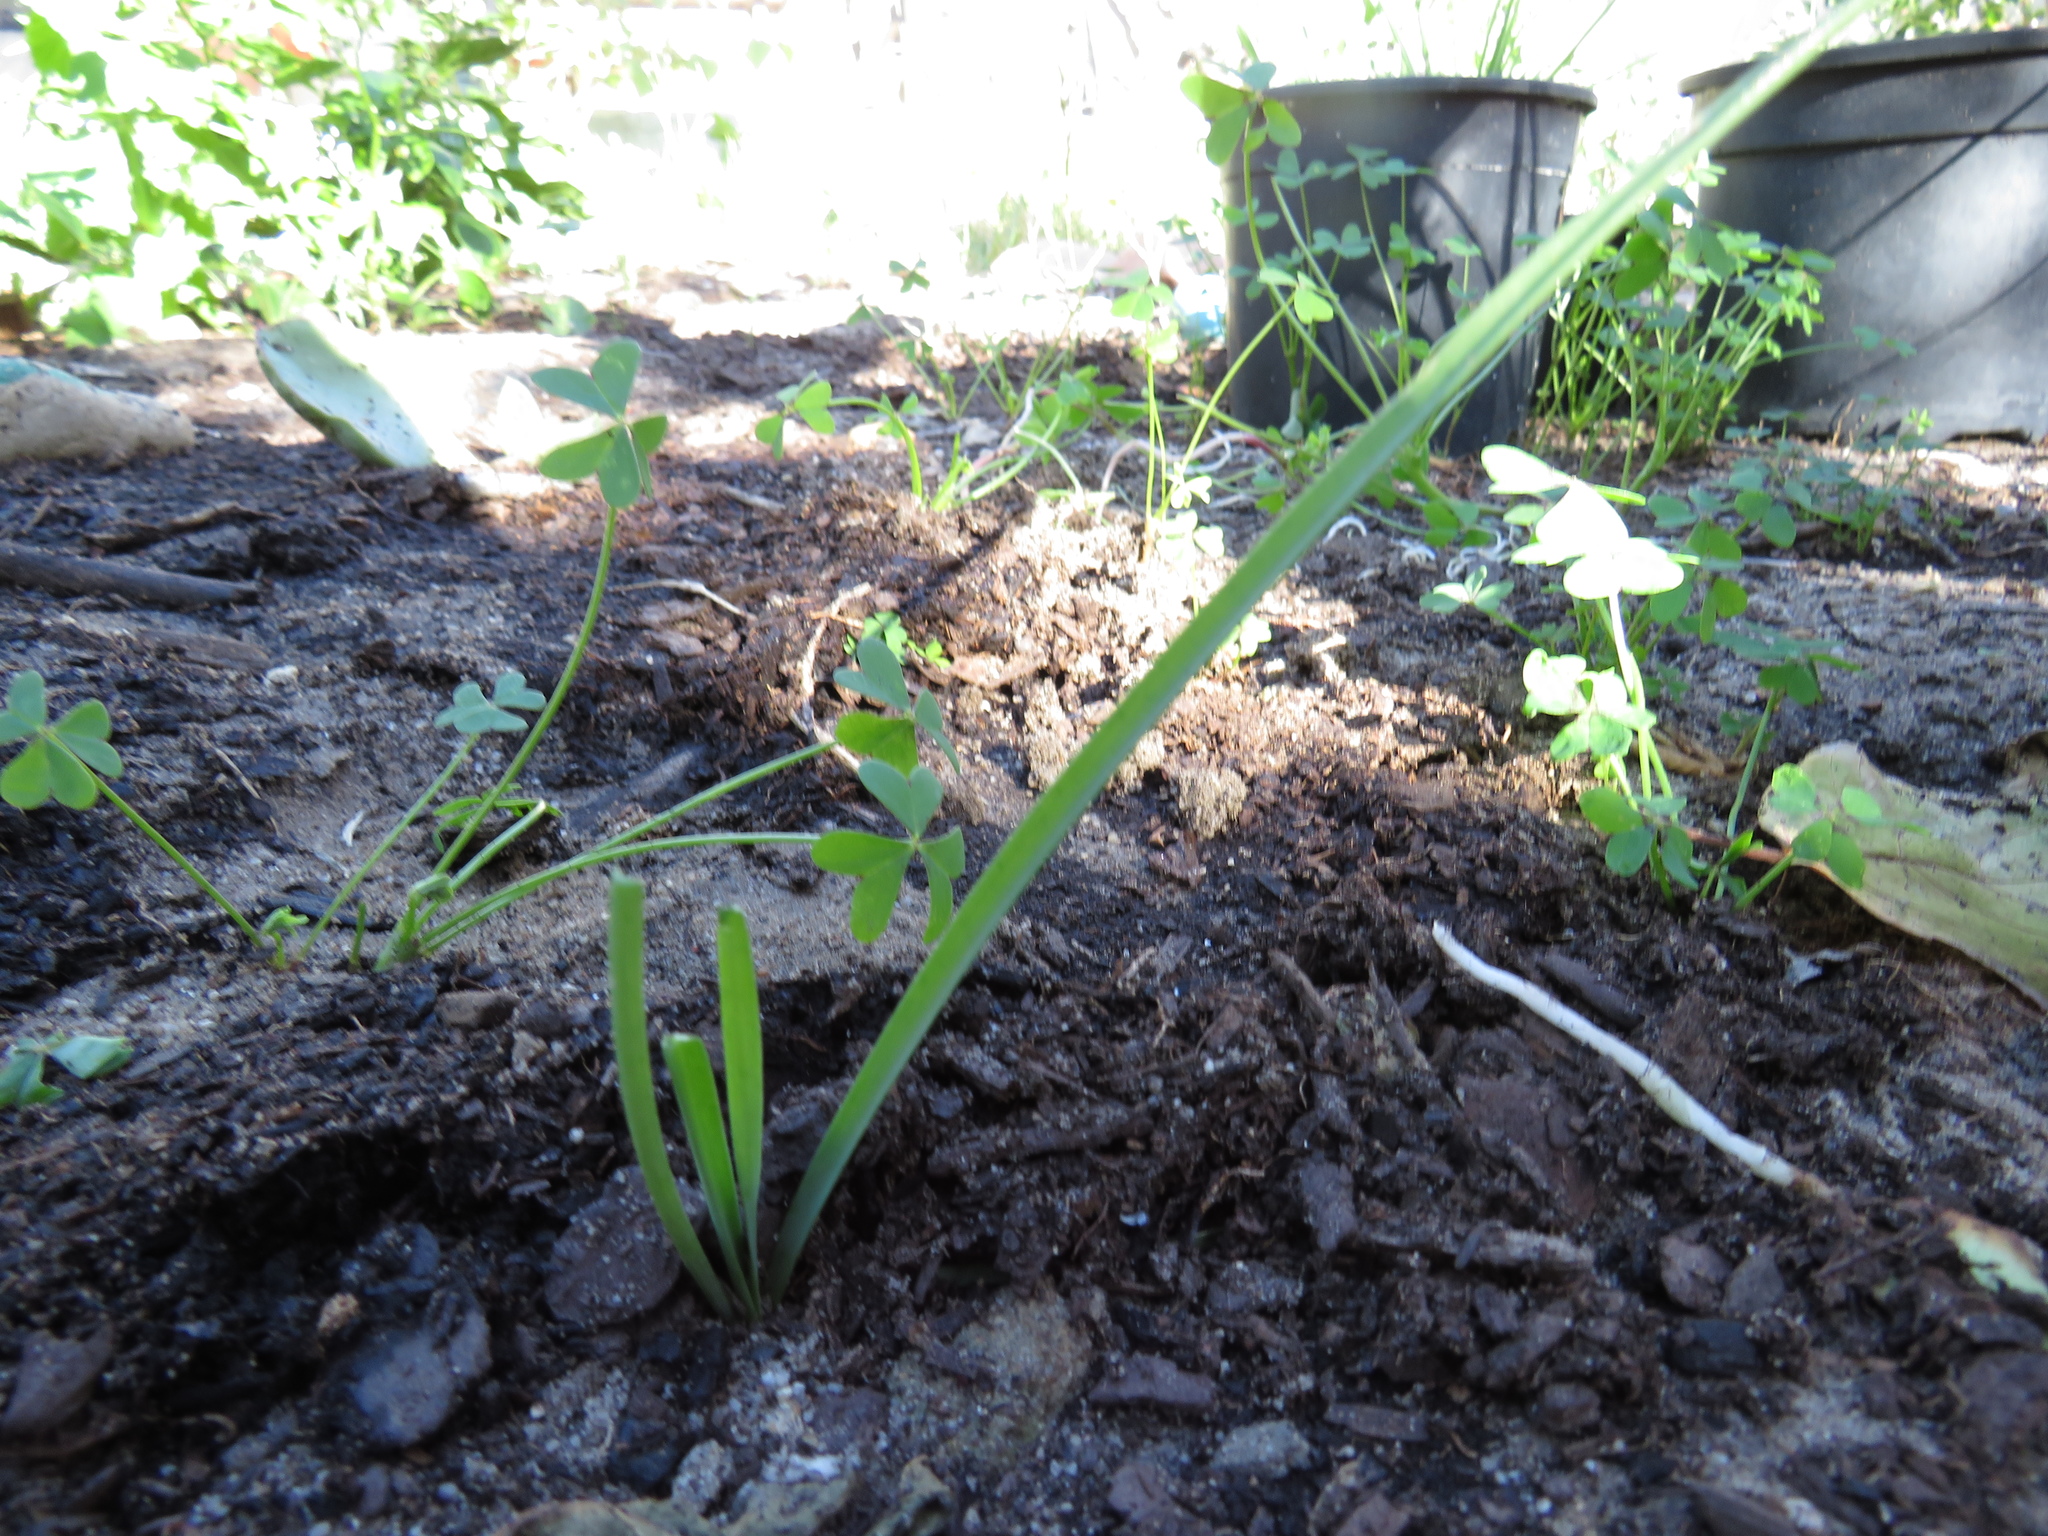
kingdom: Plantae
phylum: Tracheophyta
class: Liliopsida
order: Asparagales
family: Amaryllidaceae
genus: Nothoscordum
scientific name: Nothoscordum gracile
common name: Slender false garlic
